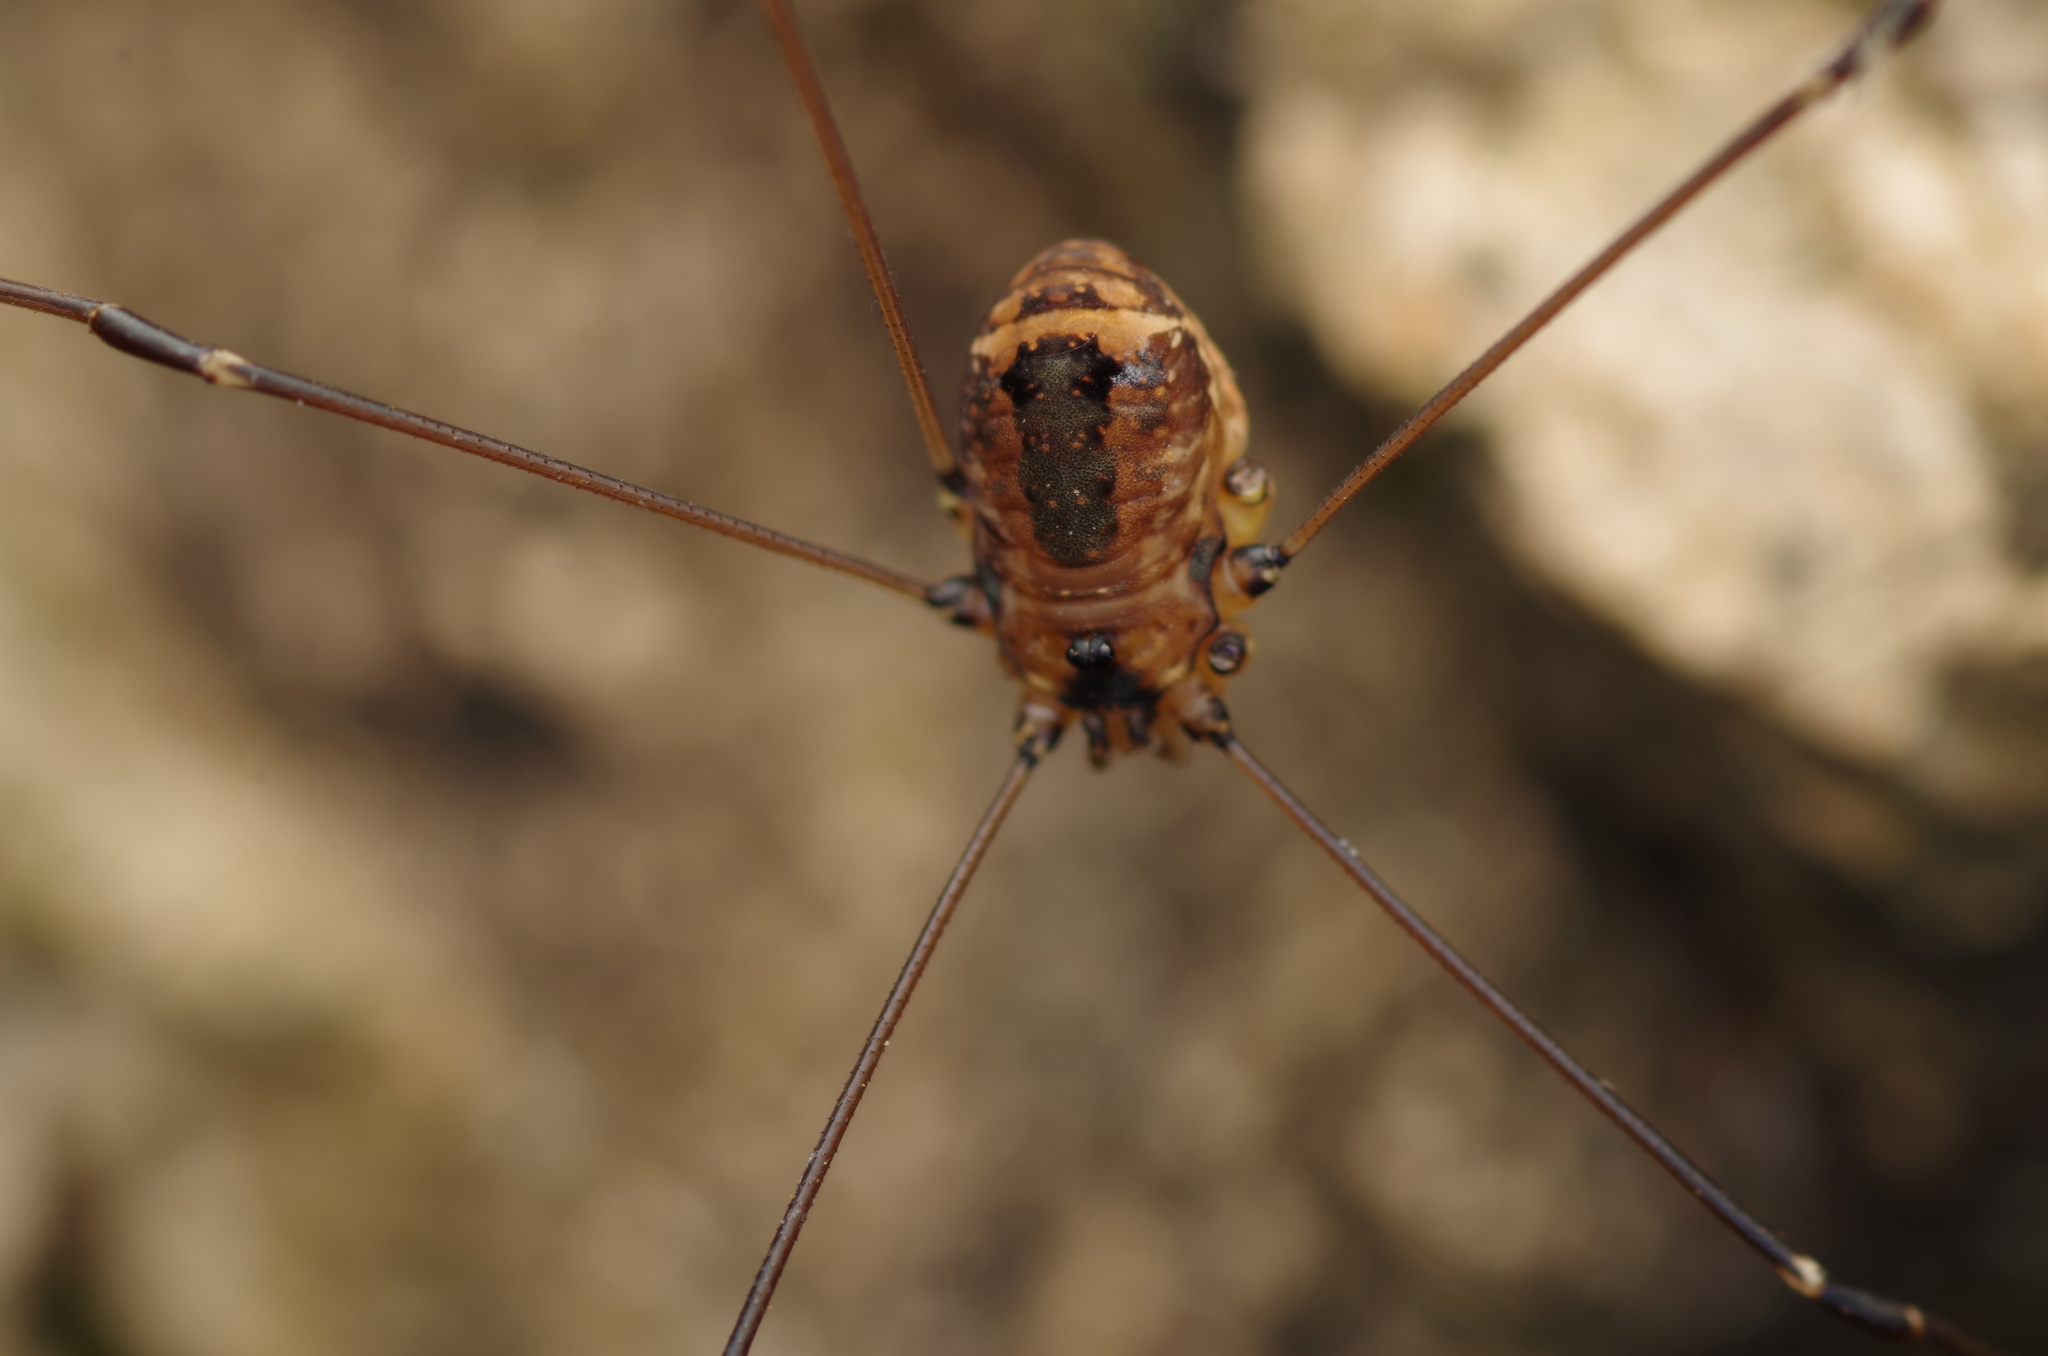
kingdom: Animalia
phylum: Arthropoda
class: Arachnida
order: Opiliones
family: Sclerosomatidae
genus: Leiobunum
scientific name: Leiobunum rotundum
